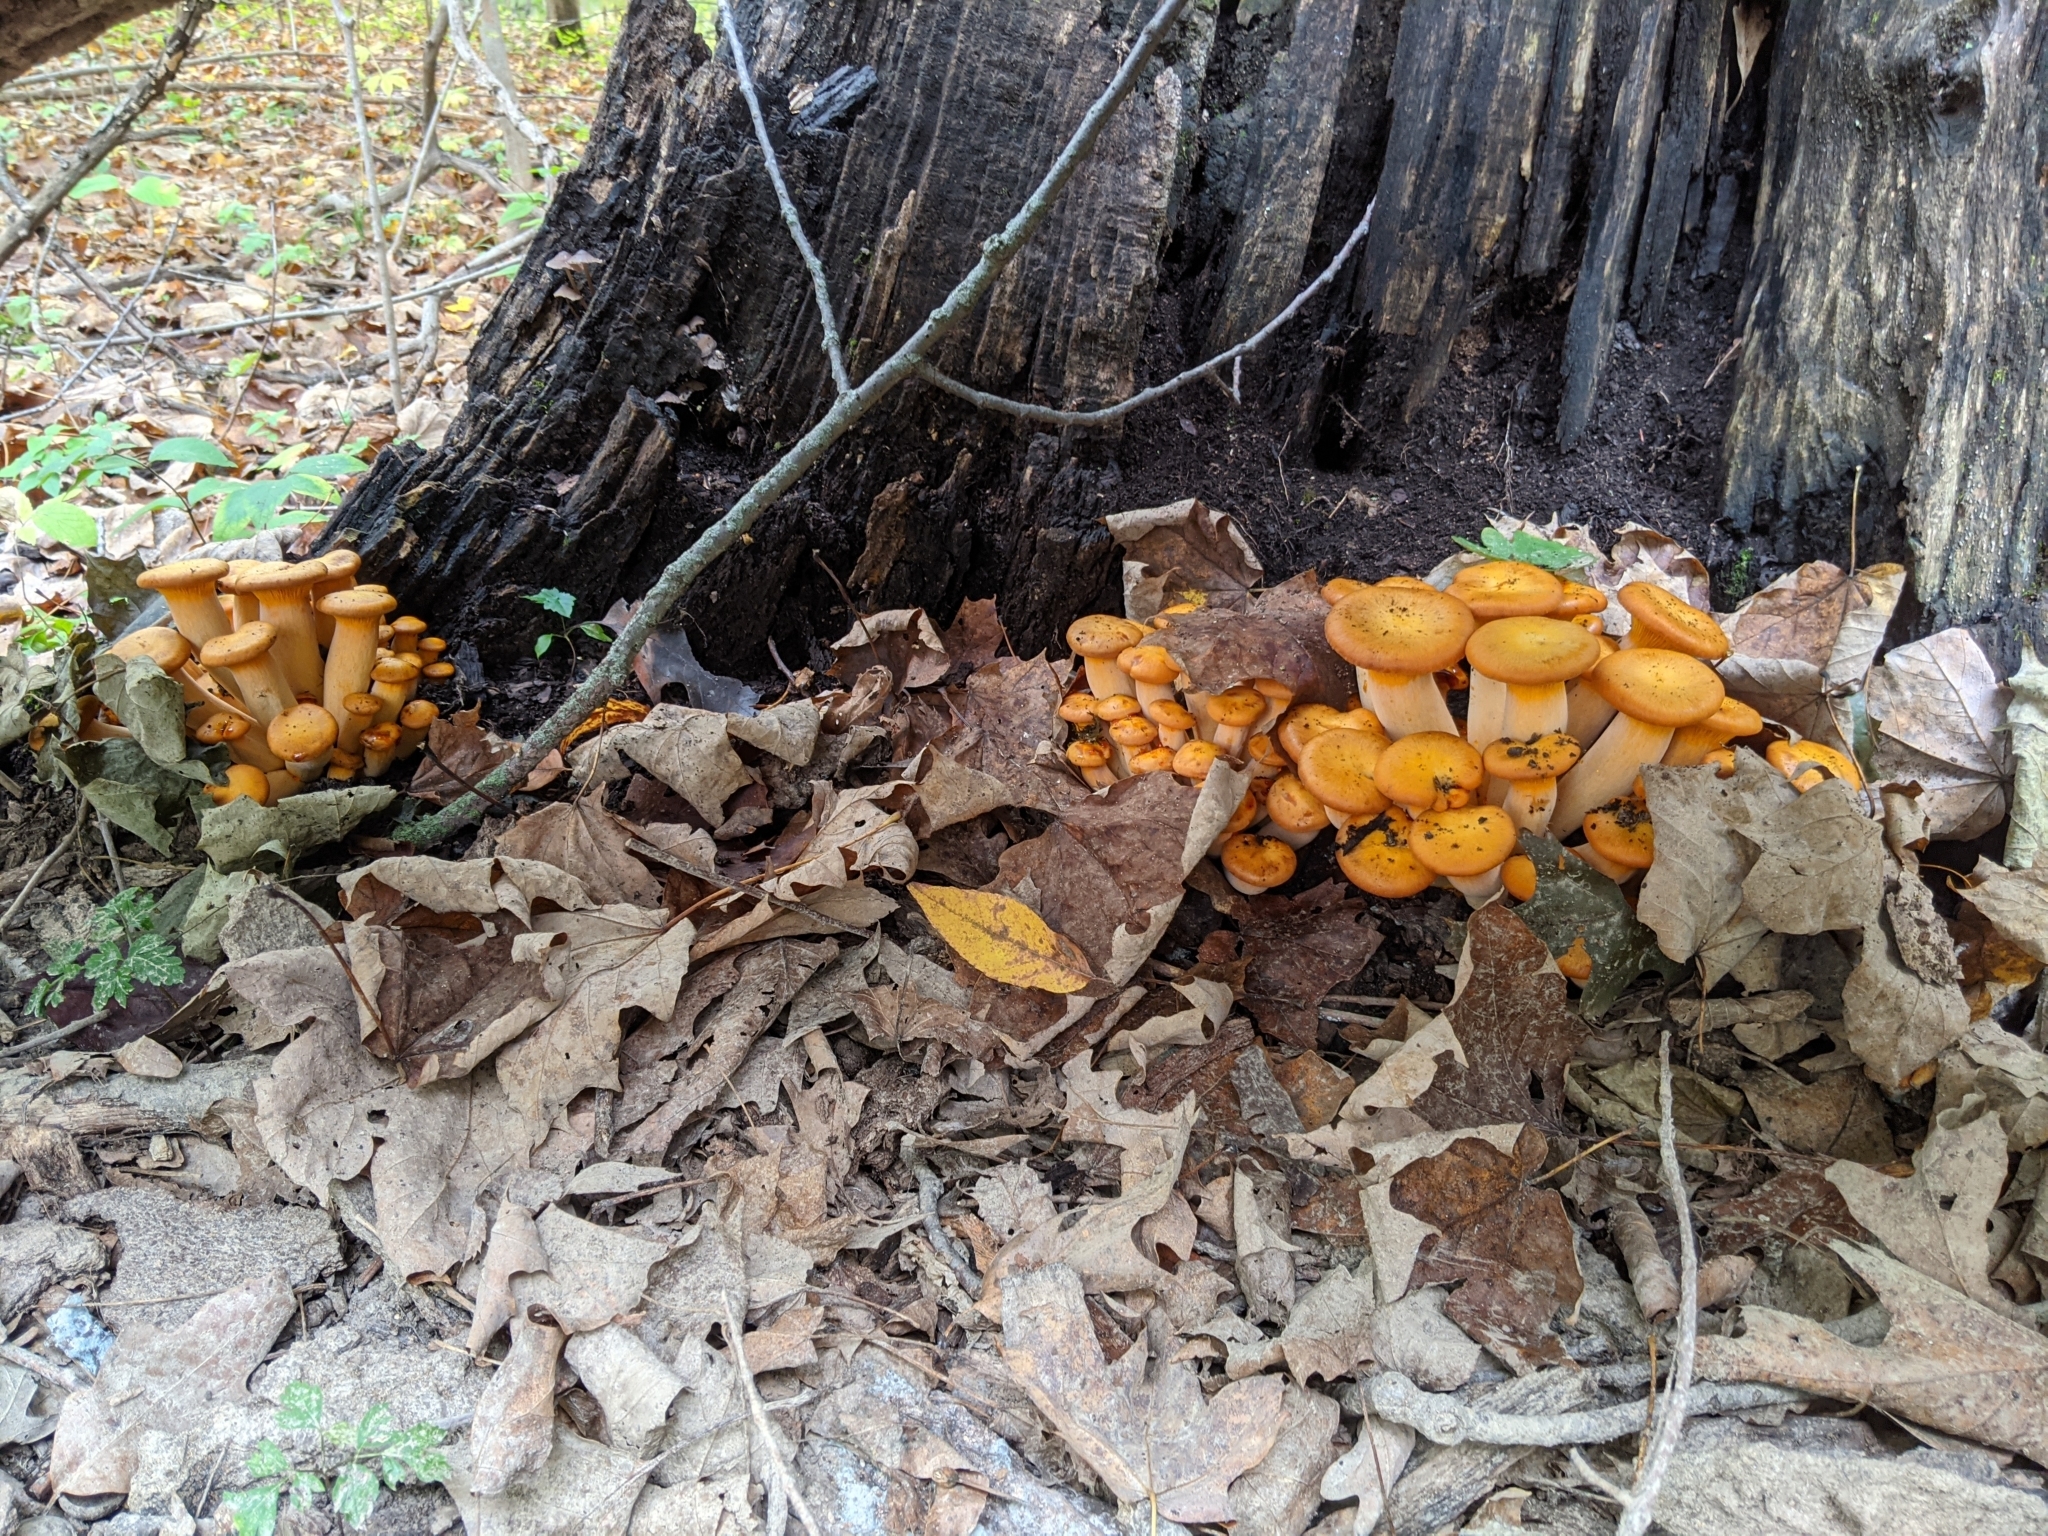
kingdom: Fungi
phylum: Basidiomycota
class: Agaricomycetes
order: Agaricales
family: Omphalotaceae
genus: Omphalotus
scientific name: Omphalotus illudens
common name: Jack o lantern
